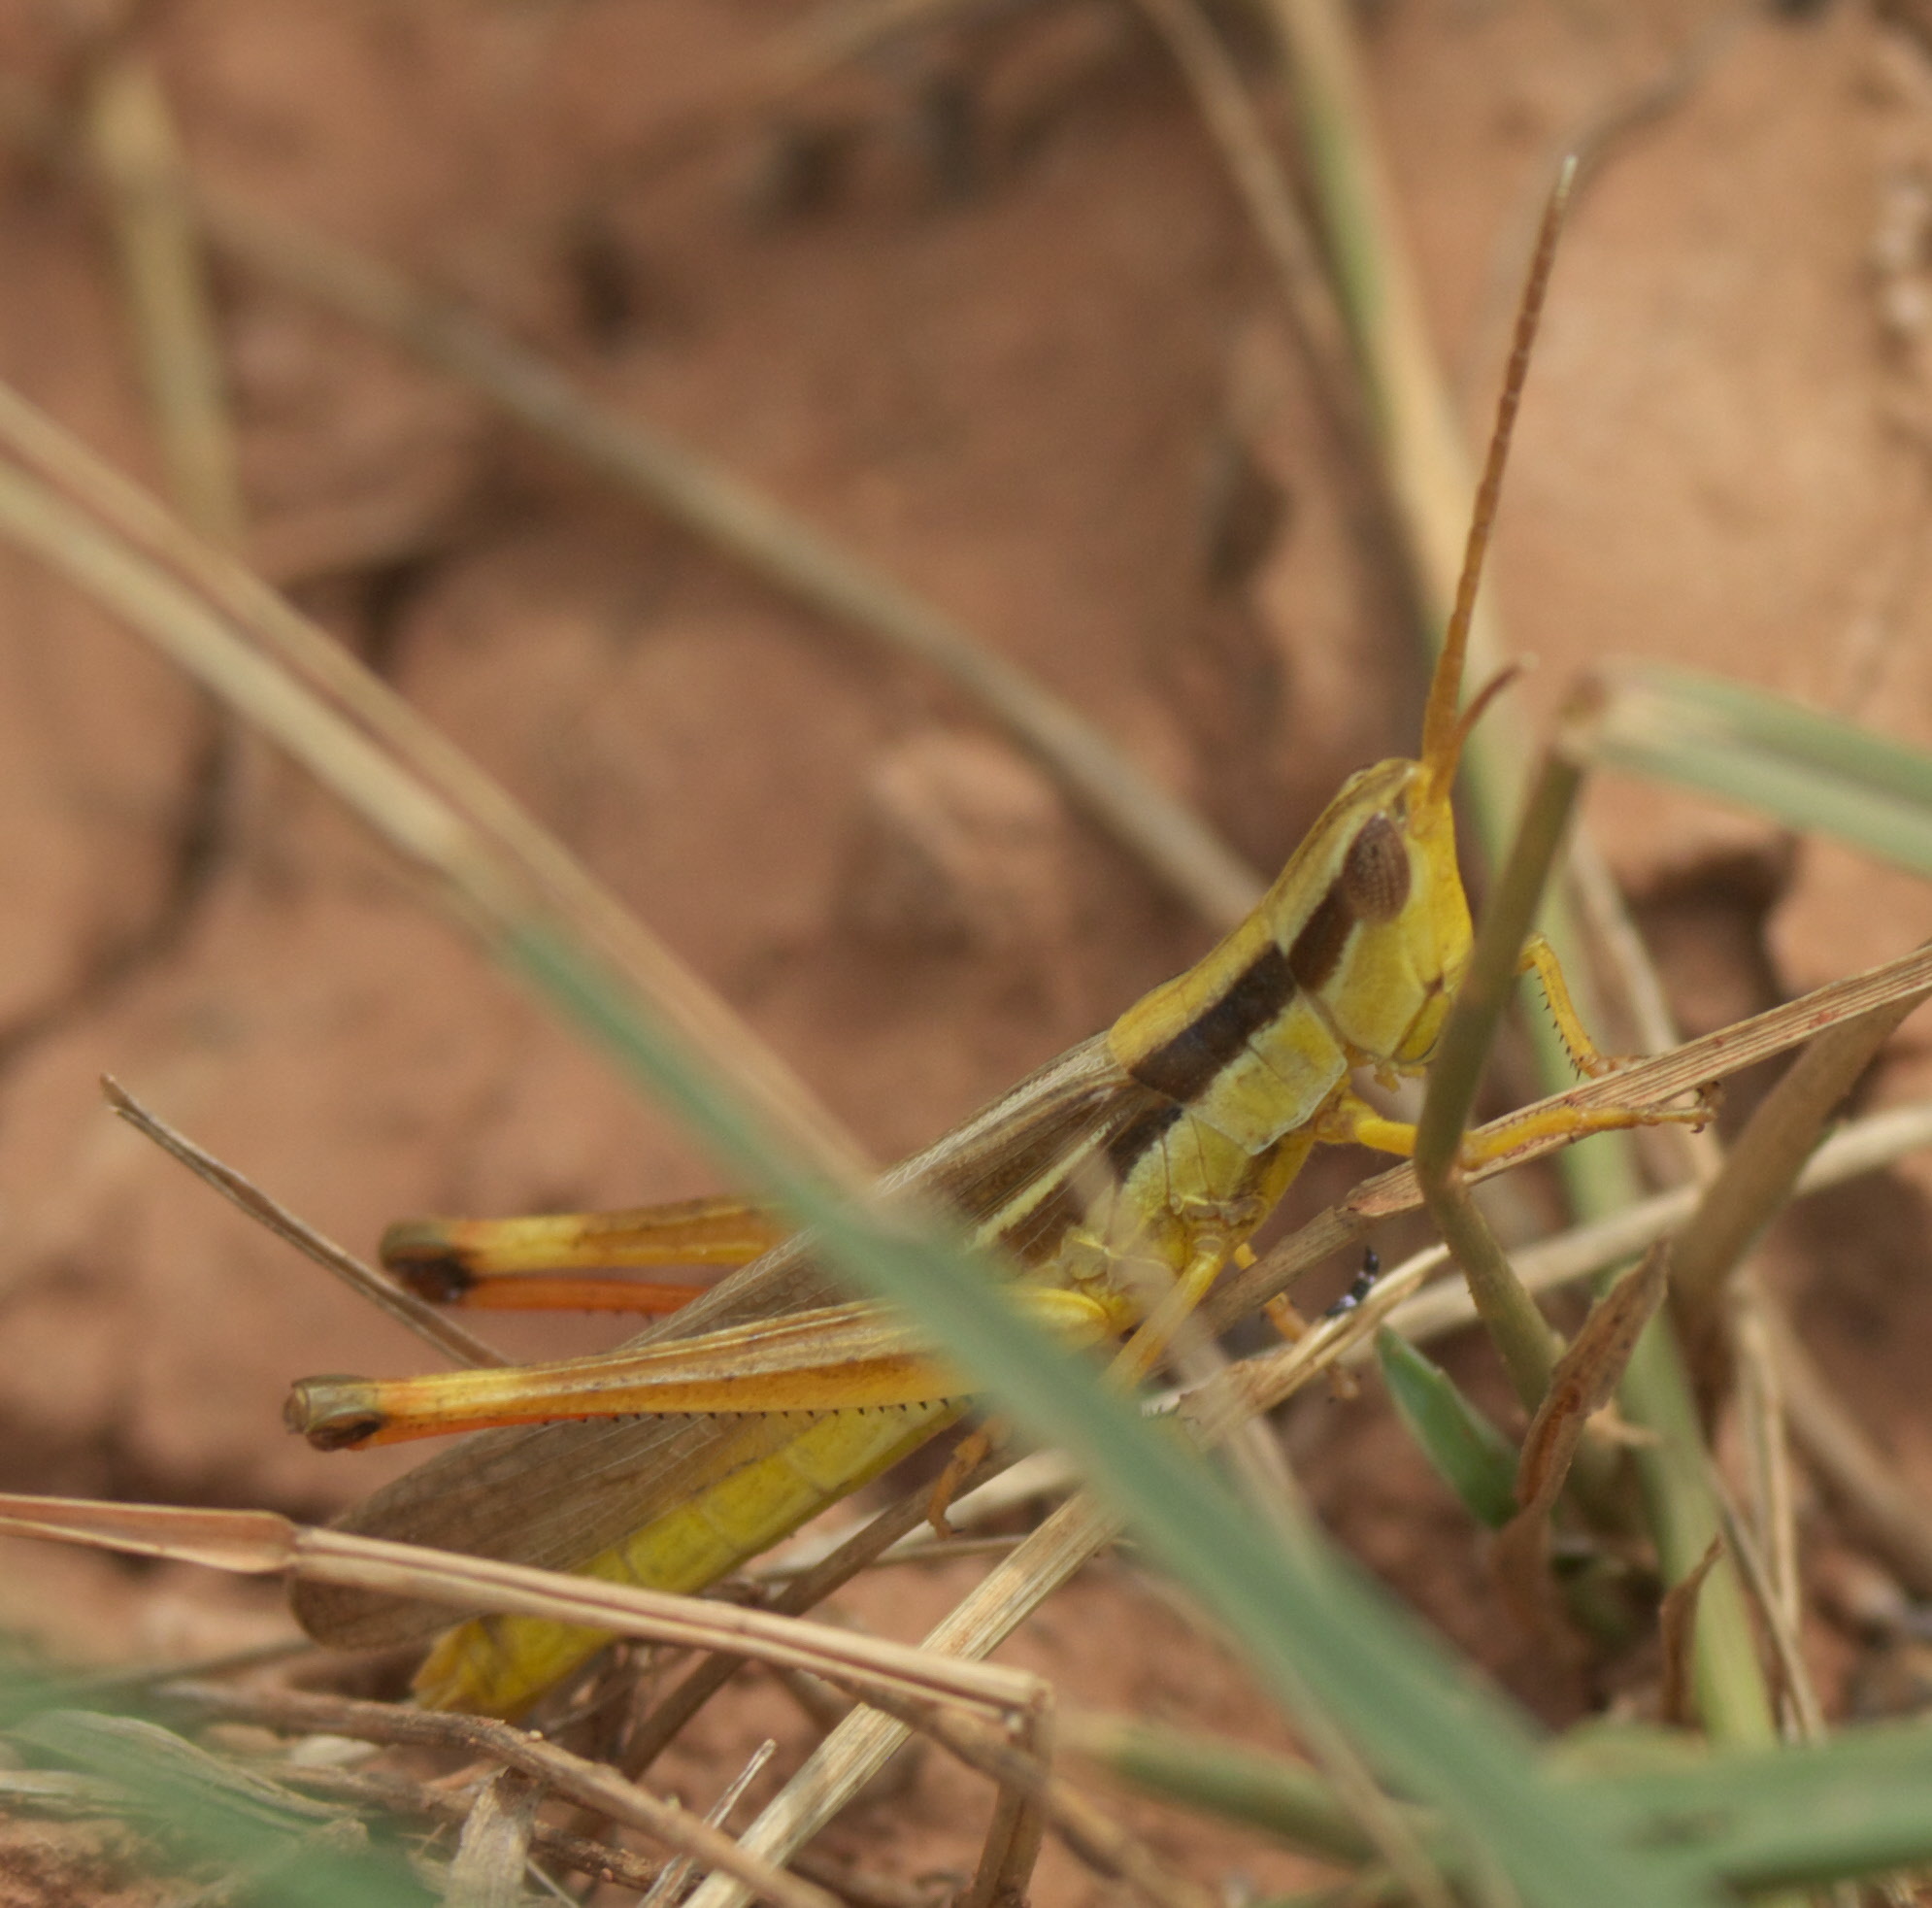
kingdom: Animalia
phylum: Arthropoda
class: Insecta
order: Orthoptera
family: Acrididae
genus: Mermiria
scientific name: Mermiria bivittata
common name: Two-striped mermiria grasshopper
